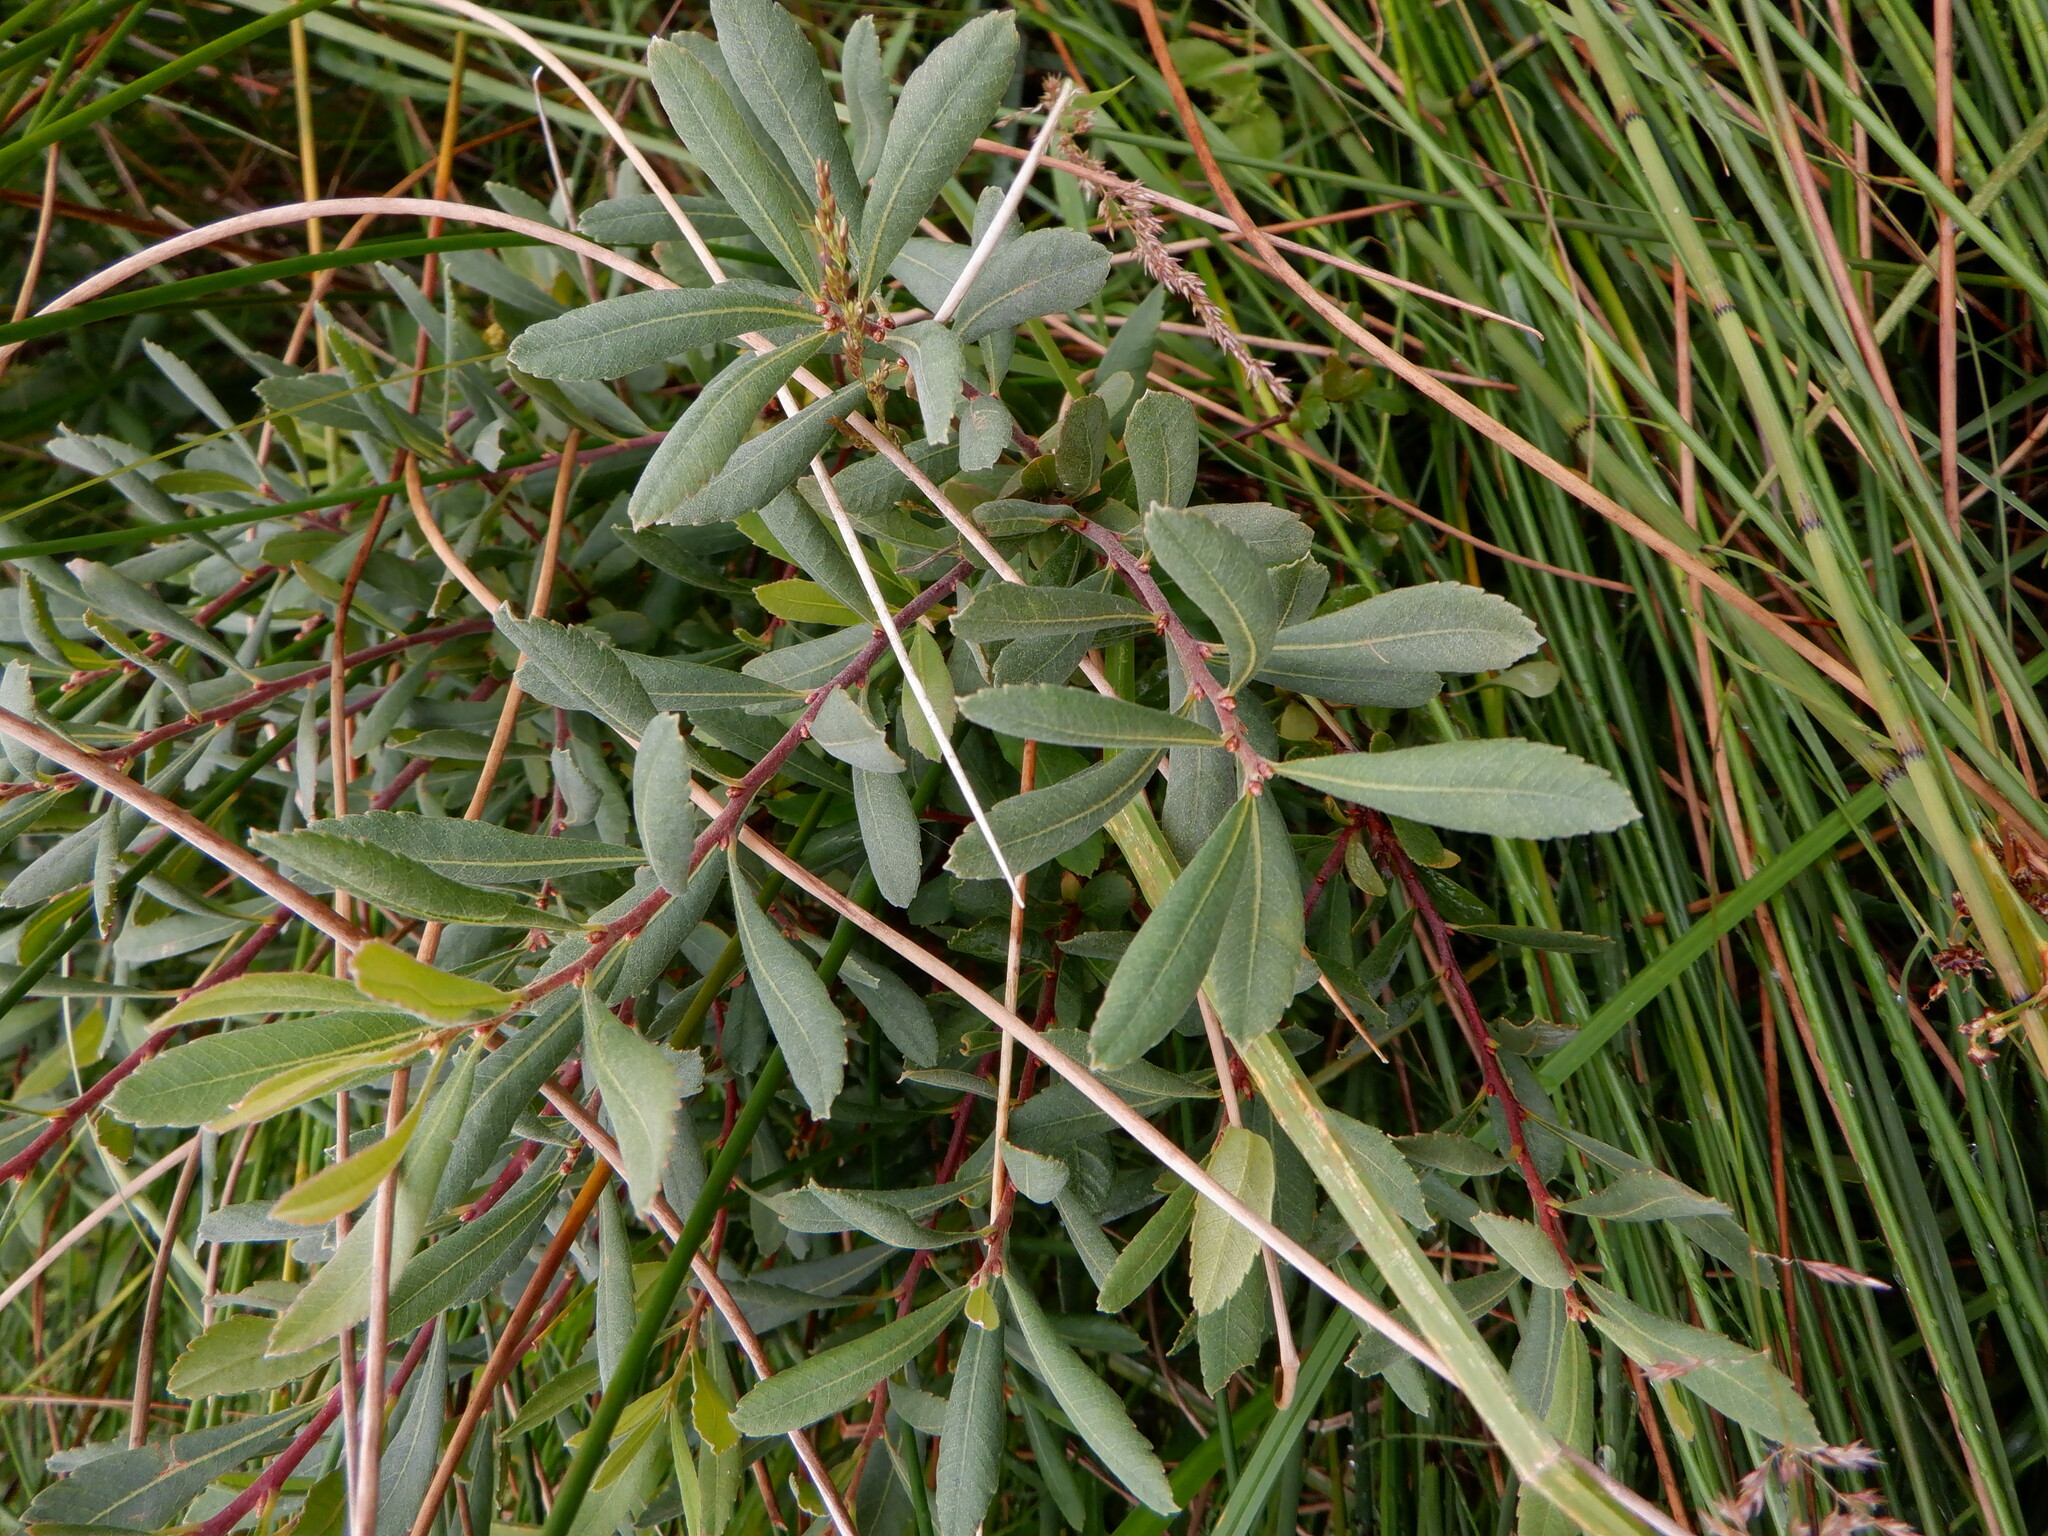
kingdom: Plantae
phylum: Tracheophyta
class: Magnoliopsida
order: Fagales
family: Myricaceae
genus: Myrica
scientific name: Myrica gale
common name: Sweet gale
